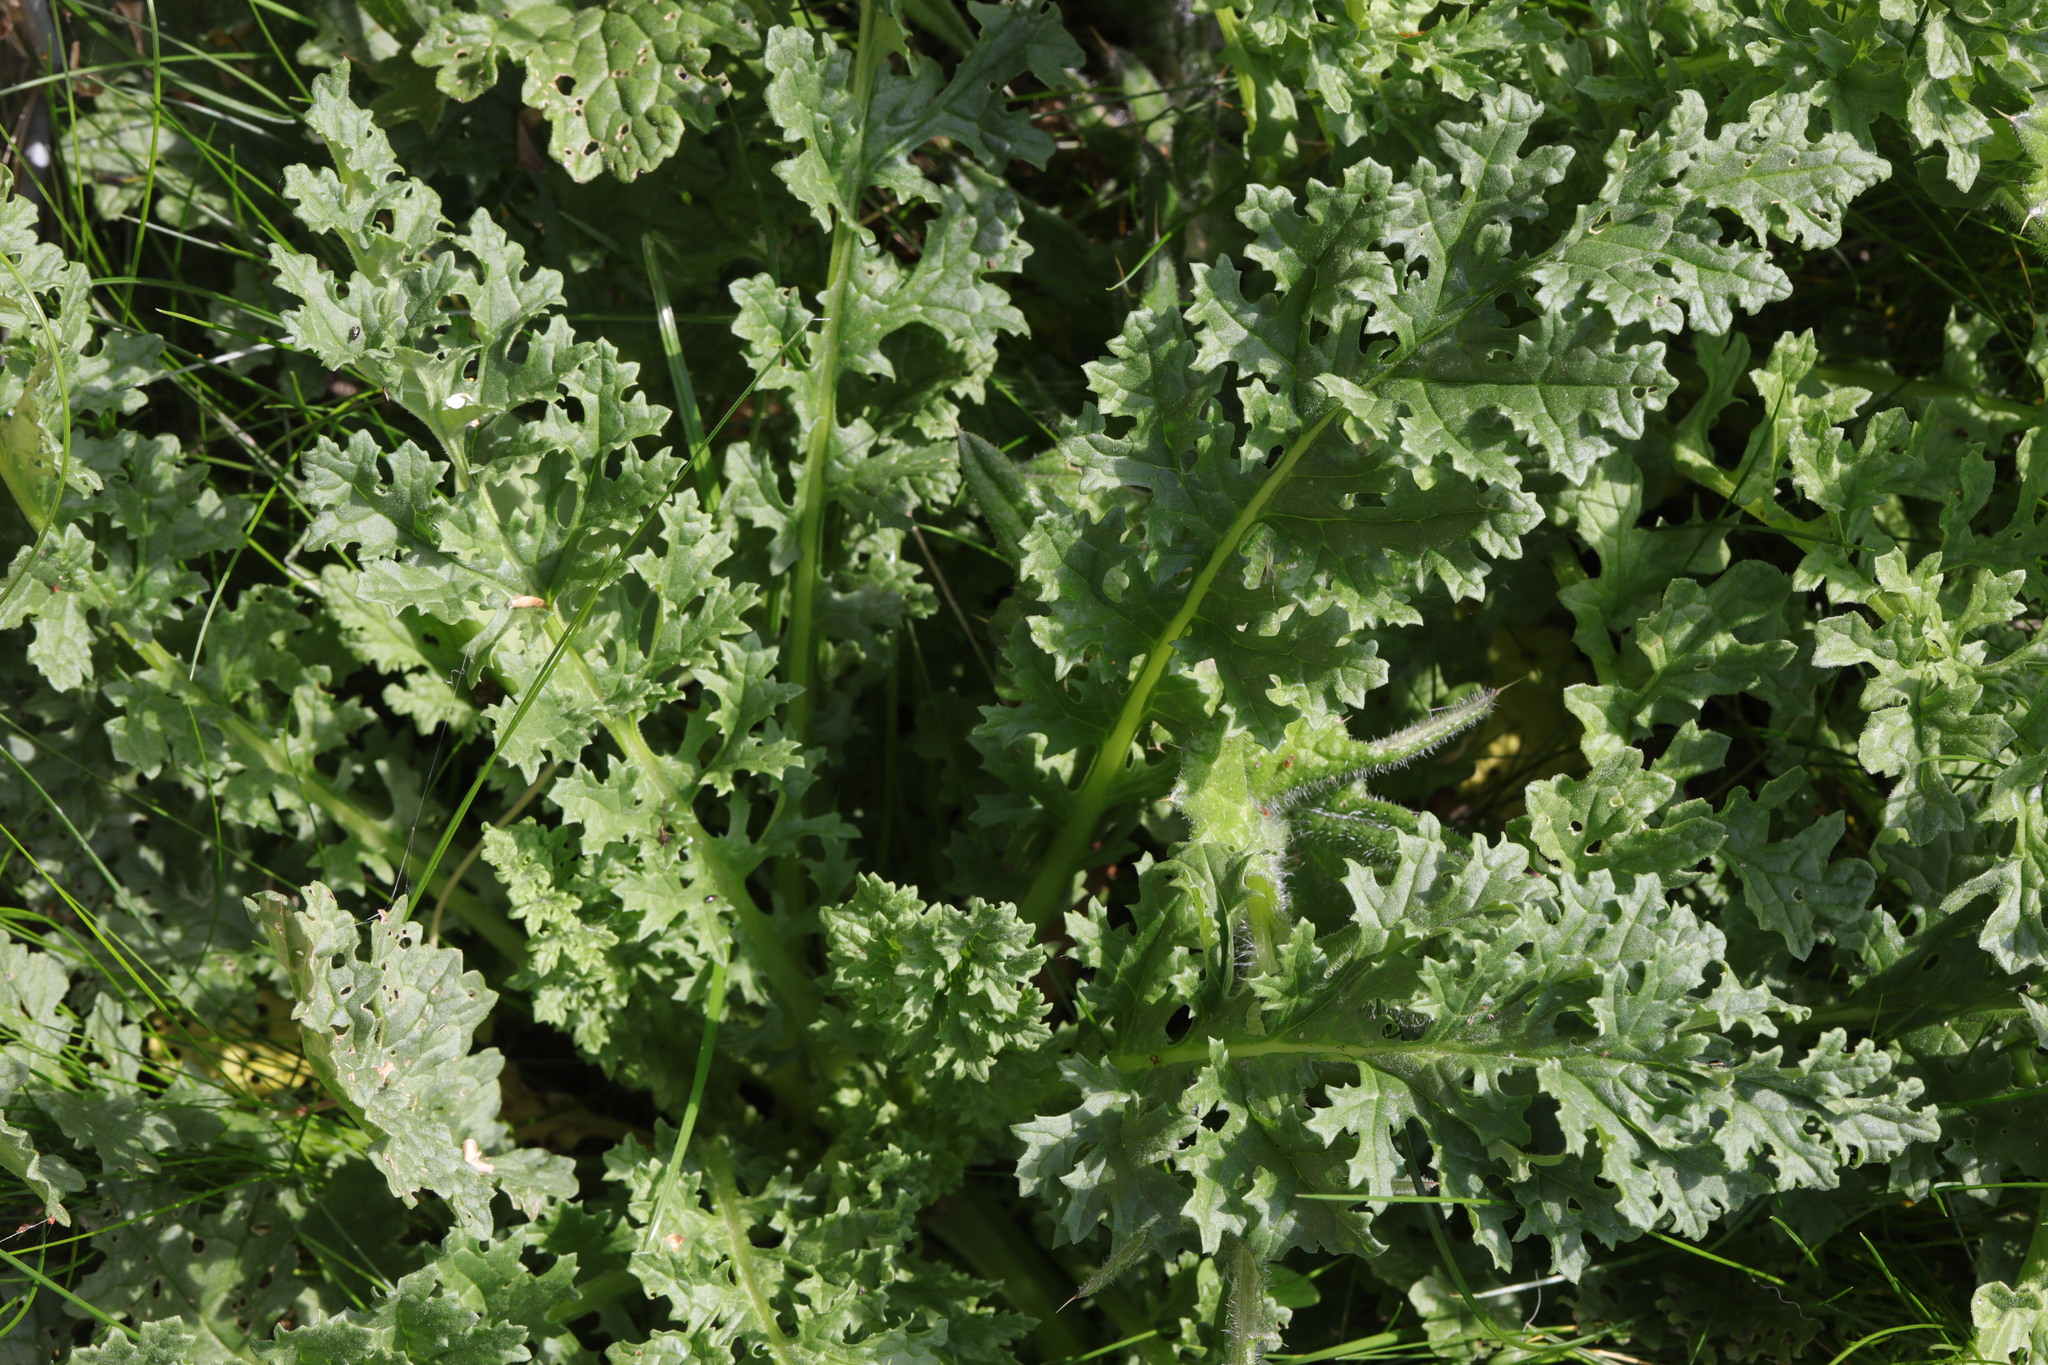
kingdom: Plantae
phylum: Tracheophyta
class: Magnoliopsida
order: Asterales
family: Asteraceae
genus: Jacobaea
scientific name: Jacobaea vulgaris
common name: Stinking willie
